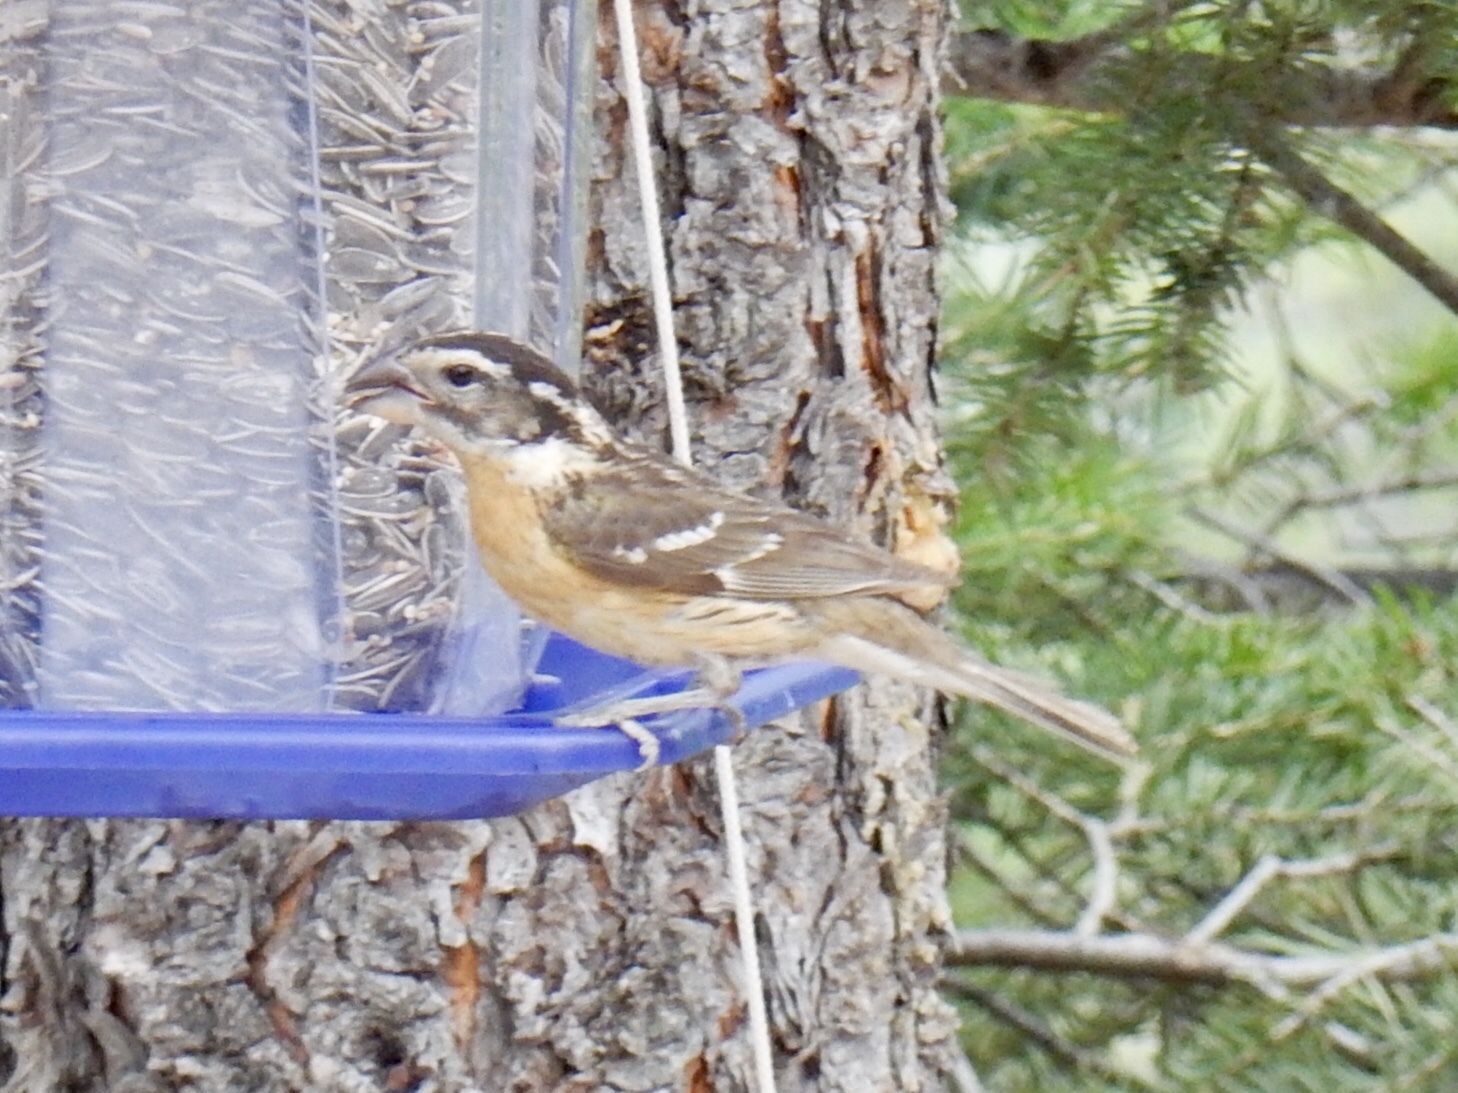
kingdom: Animalia
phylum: Chordata
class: Aves
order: Passeriformes
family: Cardinalidae
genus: Pheucticus
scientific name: Pheucticus melanocephalus
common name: Black-headed grosbeak
